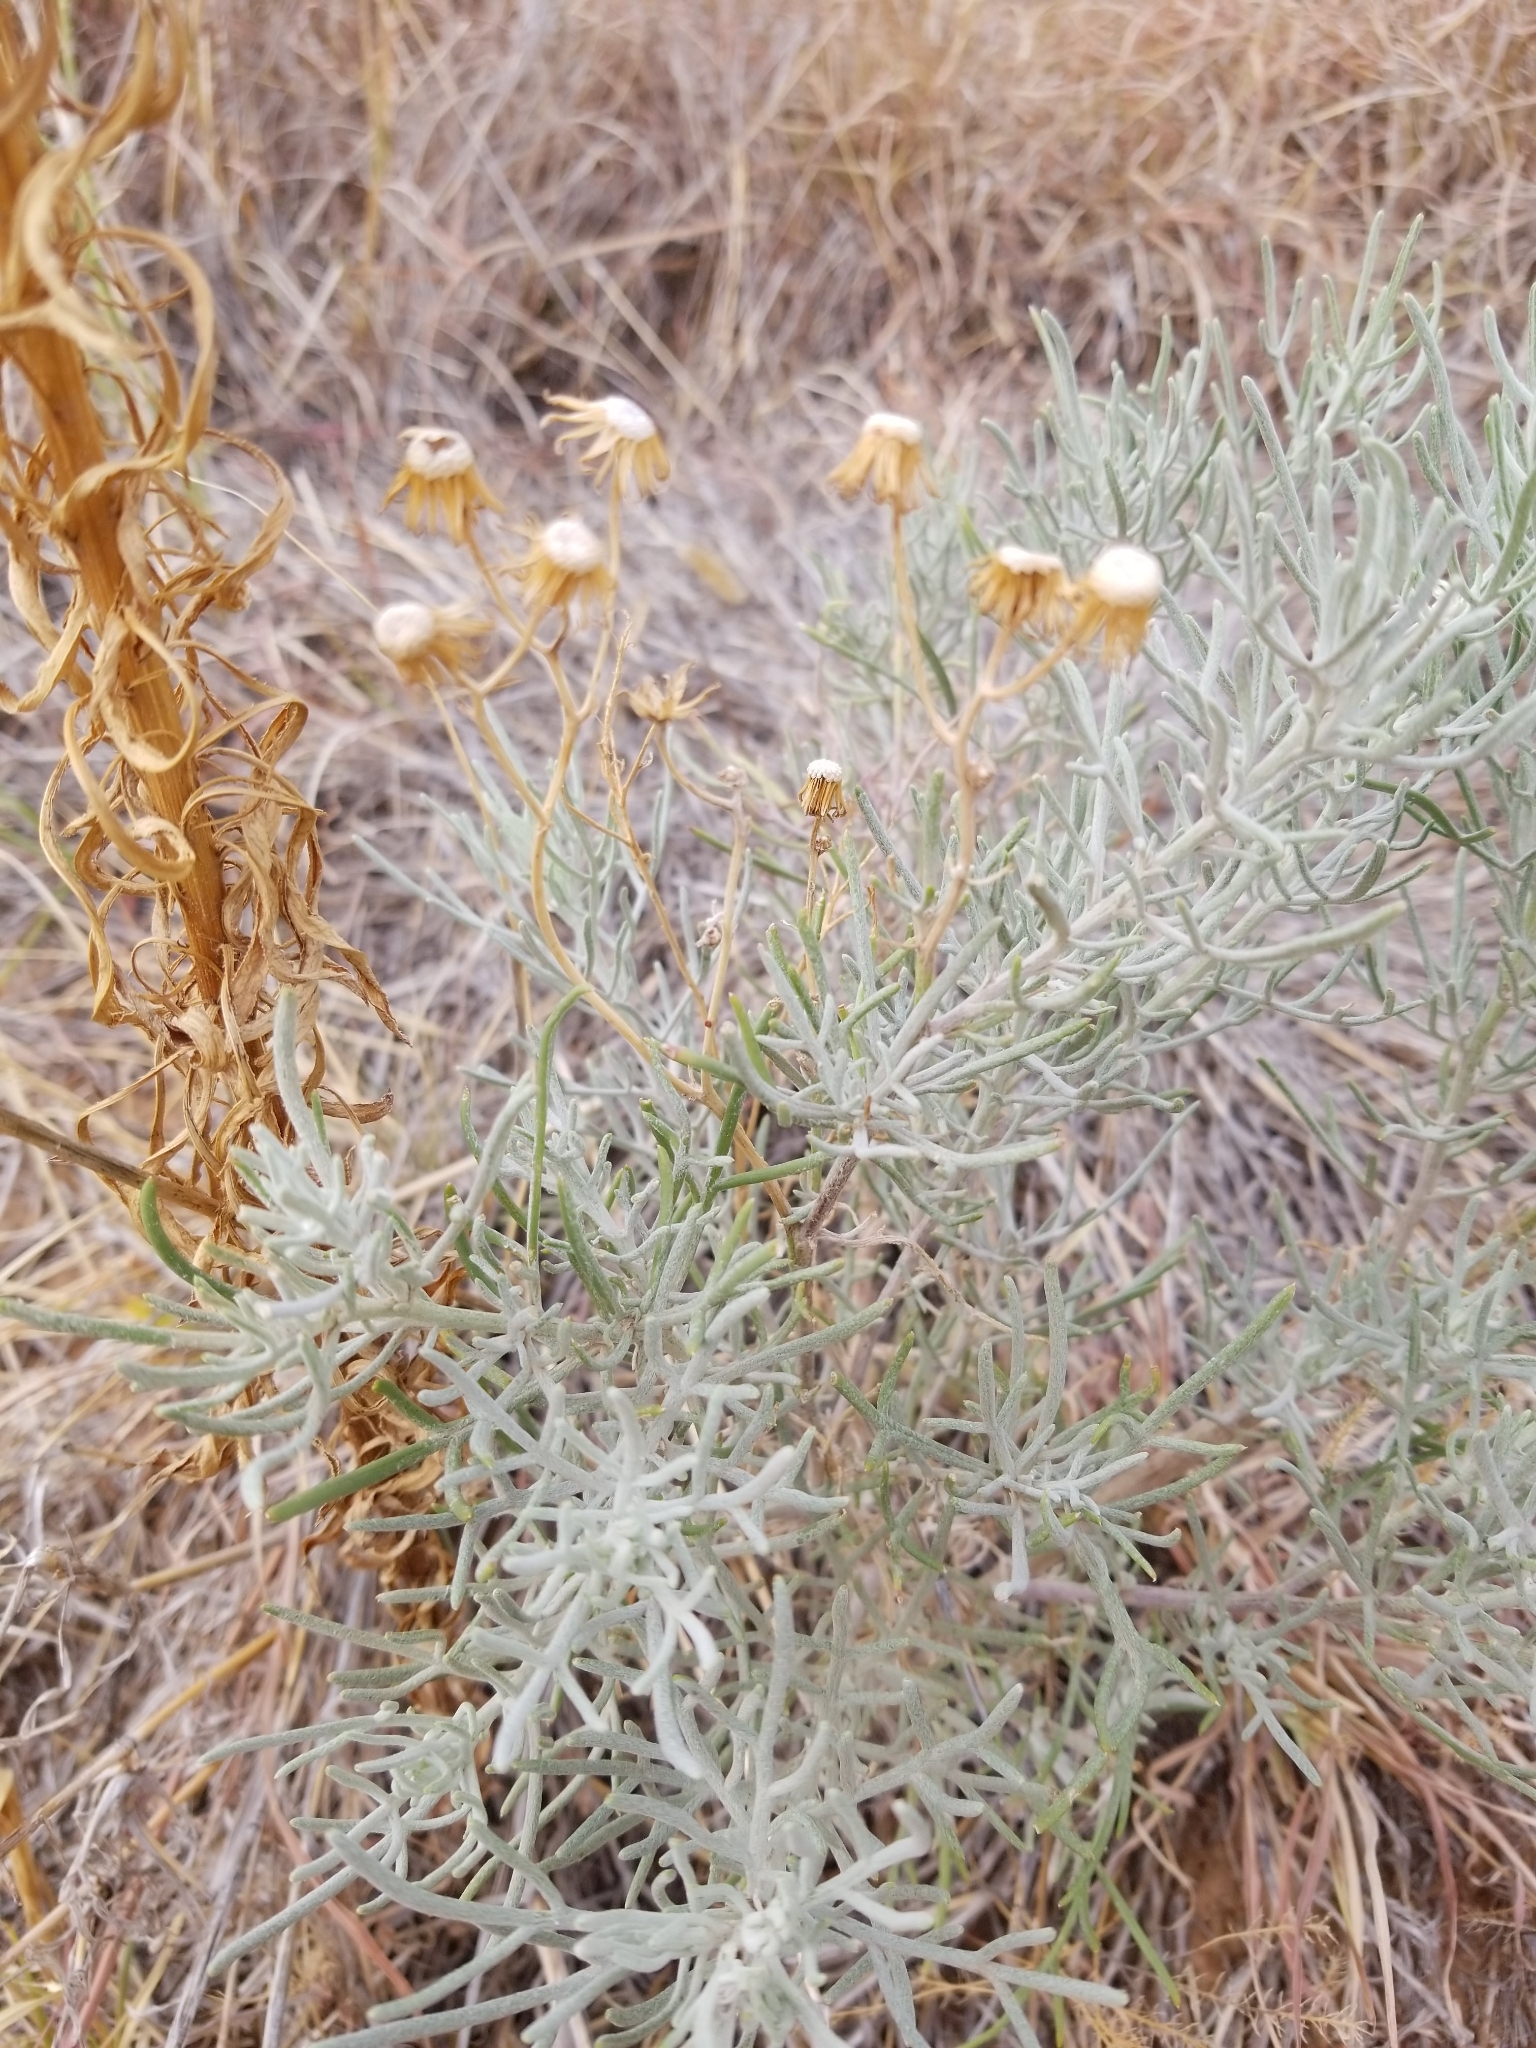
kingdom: Plantae
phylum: Tracheophyta
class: Magnoliopsida
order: Asterales
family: Asteraceae
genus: Senecio
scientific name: Senecio flaccidus
